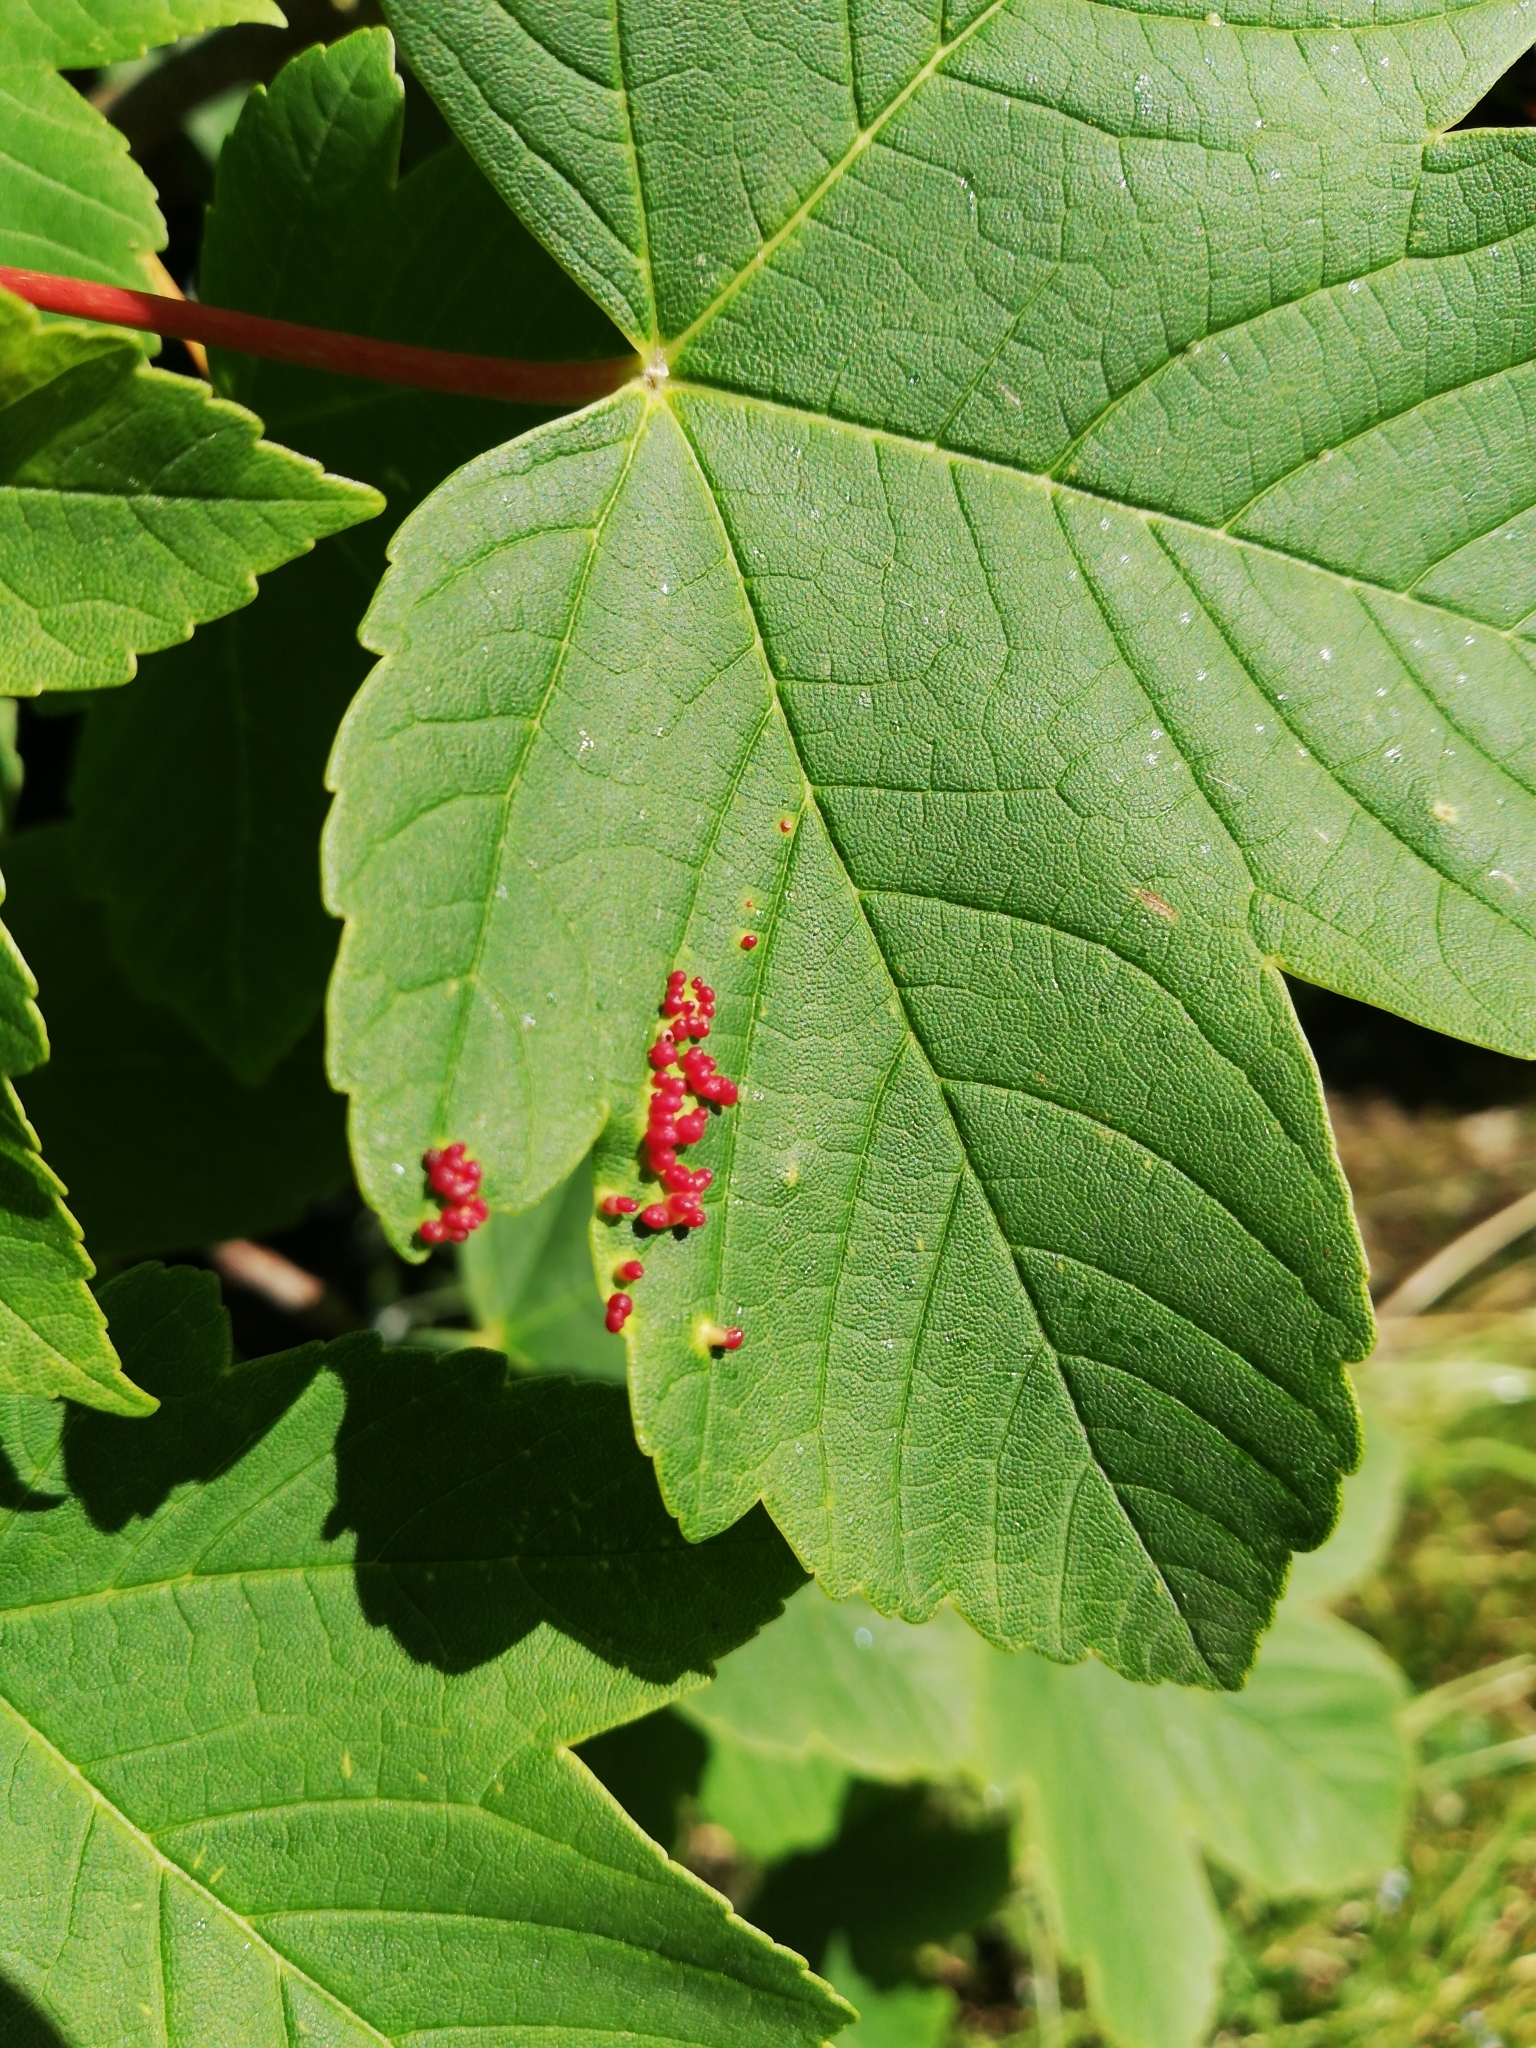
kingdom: Animalia
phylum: Arthropoda
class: Arachnida
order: Trombidiformes
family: Eriophyidae
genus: Aceria
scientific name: Aceria cephaloneus
